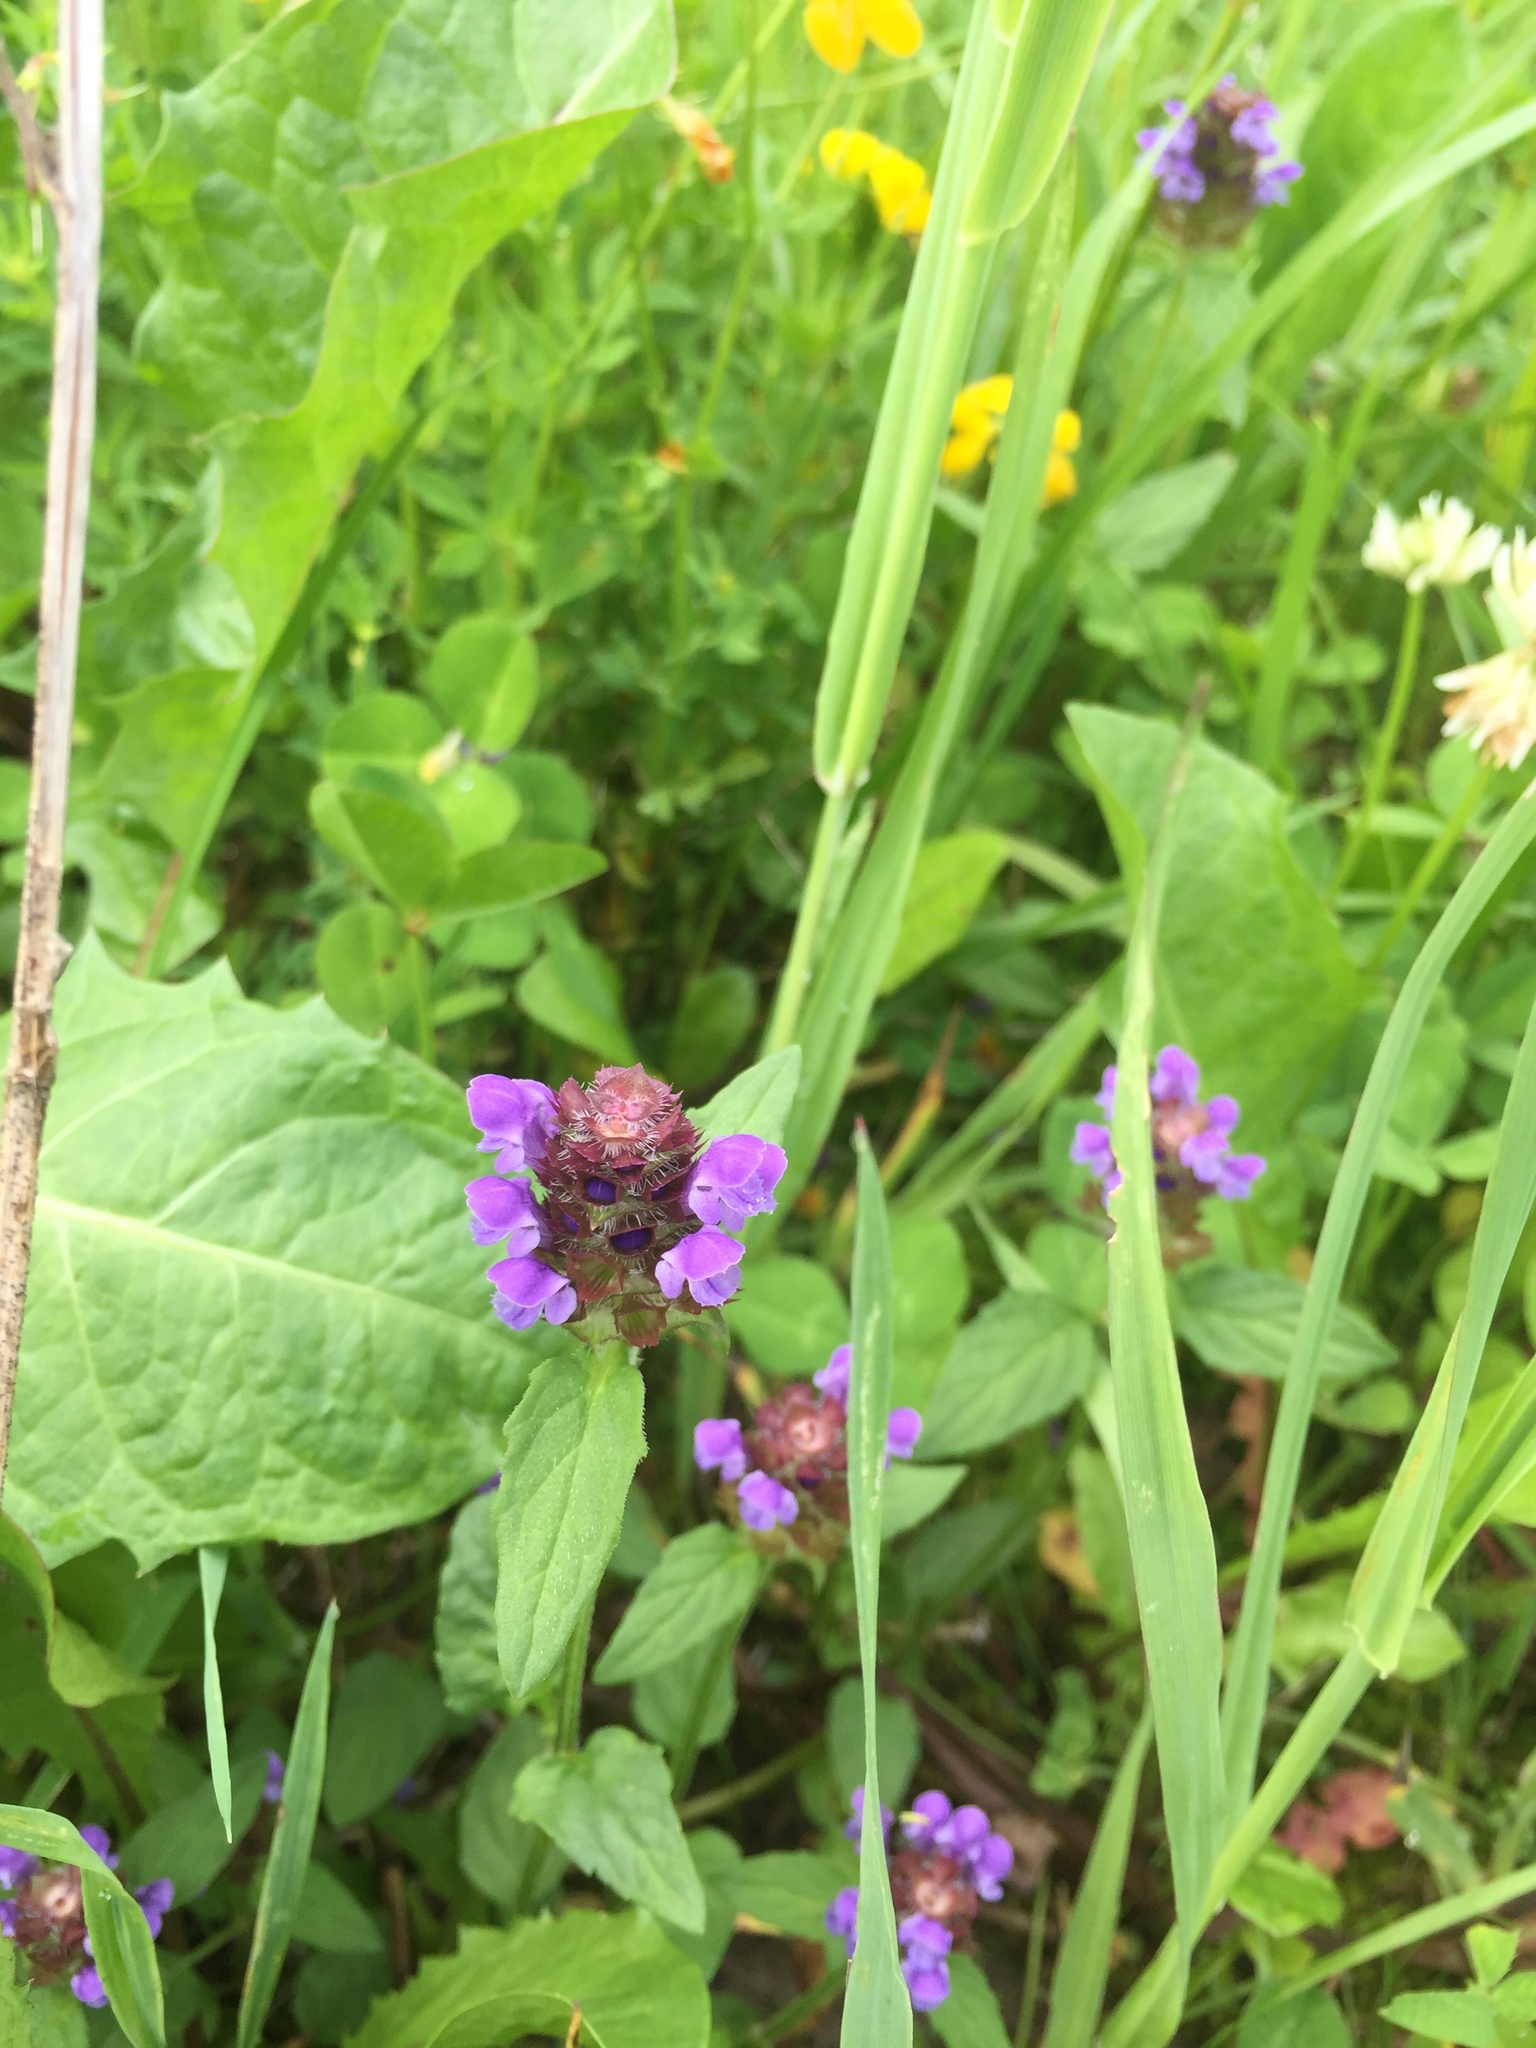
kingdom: Plantae
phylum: Tracheophyta
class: Magnoliopsida
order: Lamiales
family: Lamiaceae
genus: Prunella
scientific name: Prunella vulgaris
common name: Heal-all
